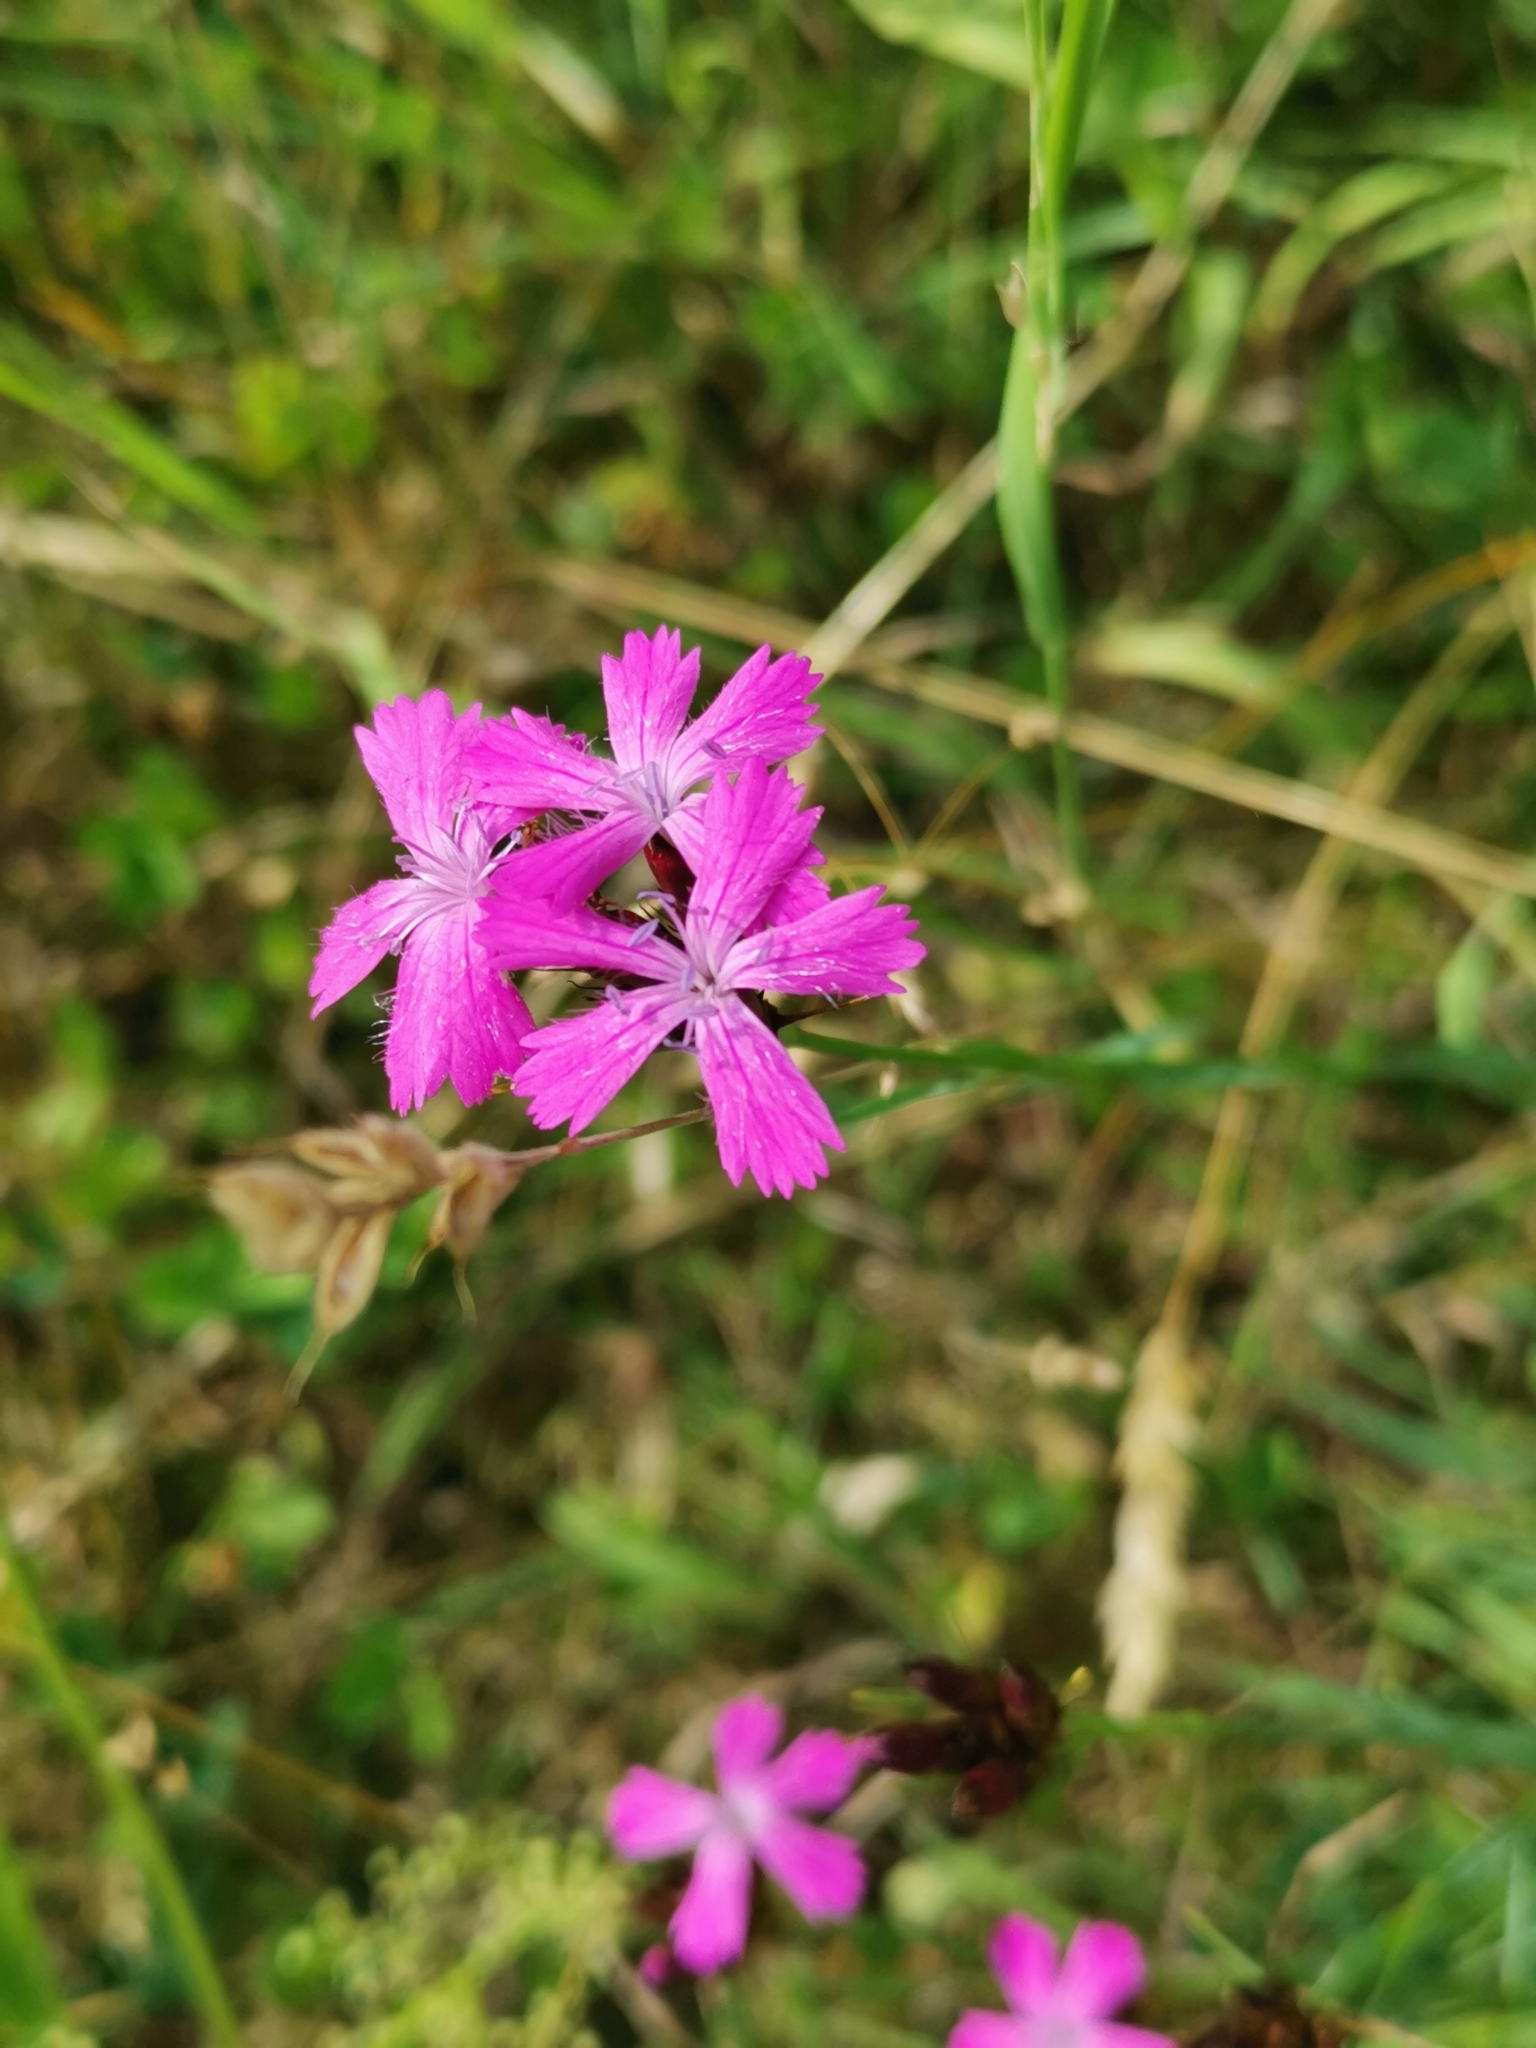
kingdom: Plantae
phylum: Tracheophyta
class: Magnoliopsida
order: Caryophyllales
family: Caryophyllaceae
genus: Dianthus
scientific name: Dianthus carthusianorum
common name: Carthusian pink
